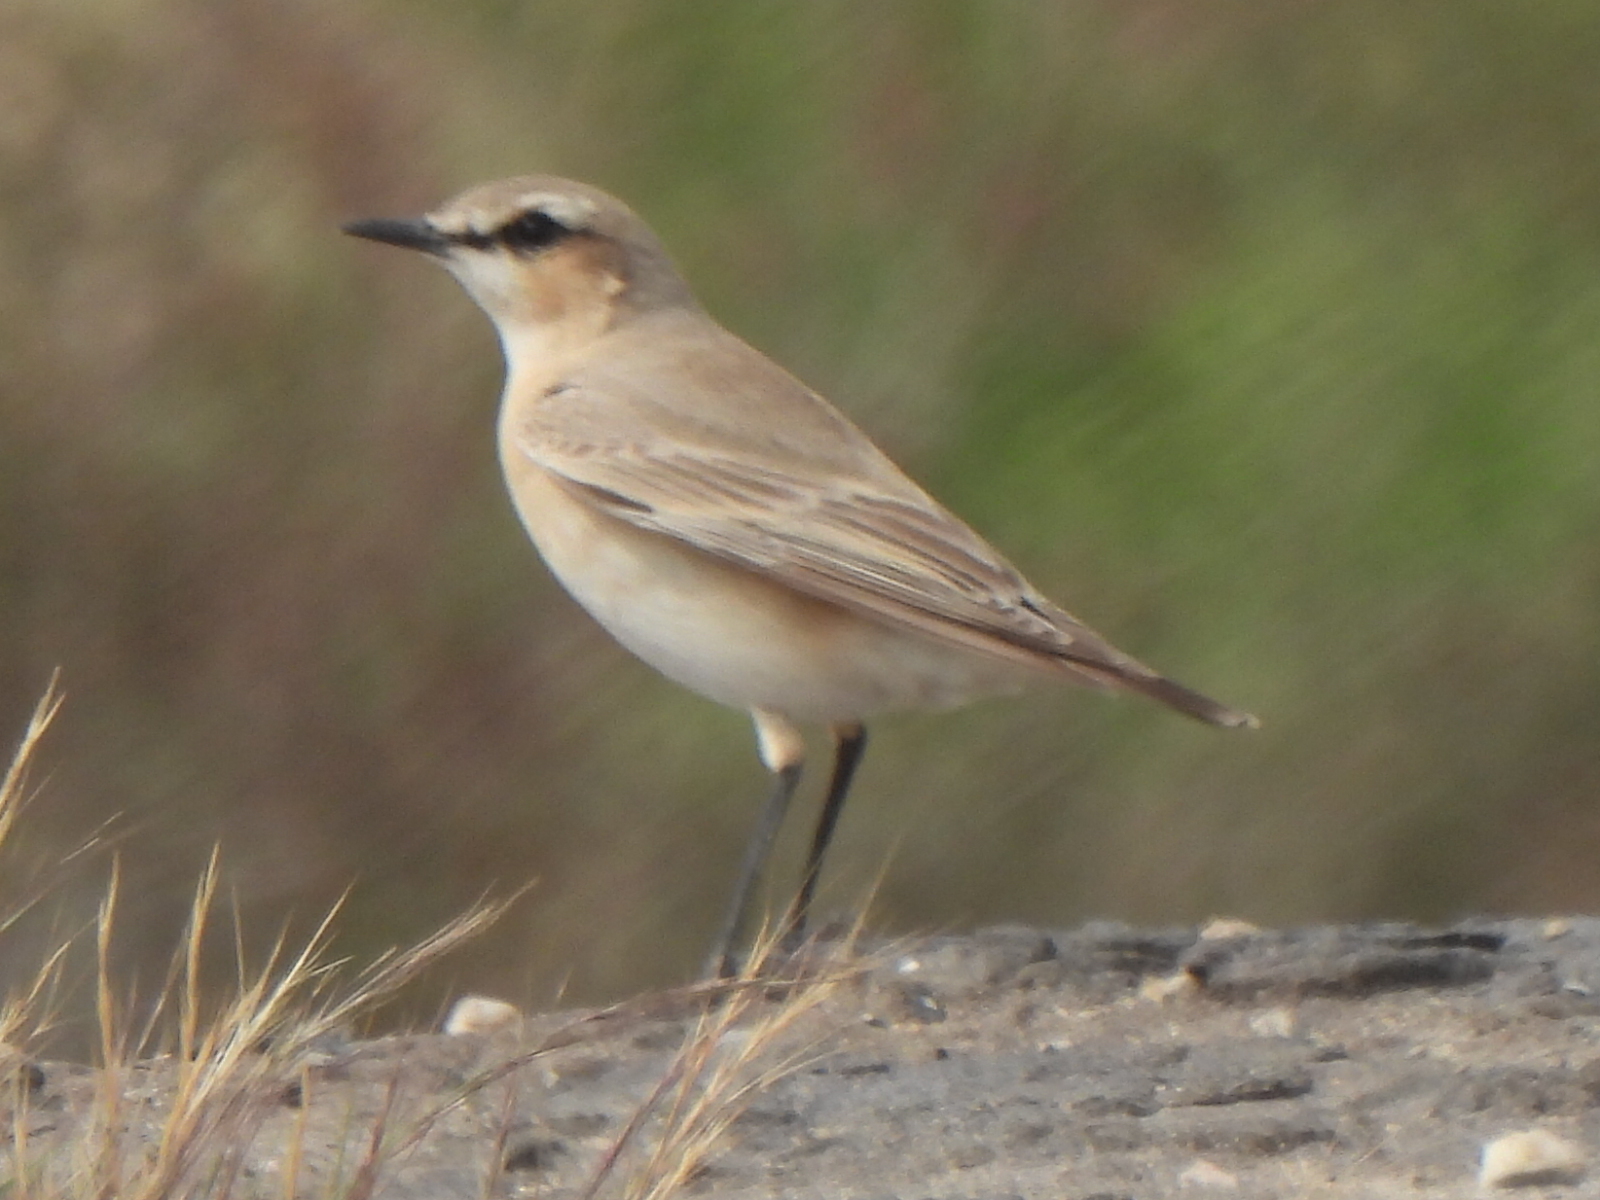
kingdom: Animalia
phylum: Chordata
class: Aves
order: Passeriformes
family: Muscicapidae
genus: Oenanthe
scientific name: Oenanthe isabellina
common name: Isabelline wheatear
